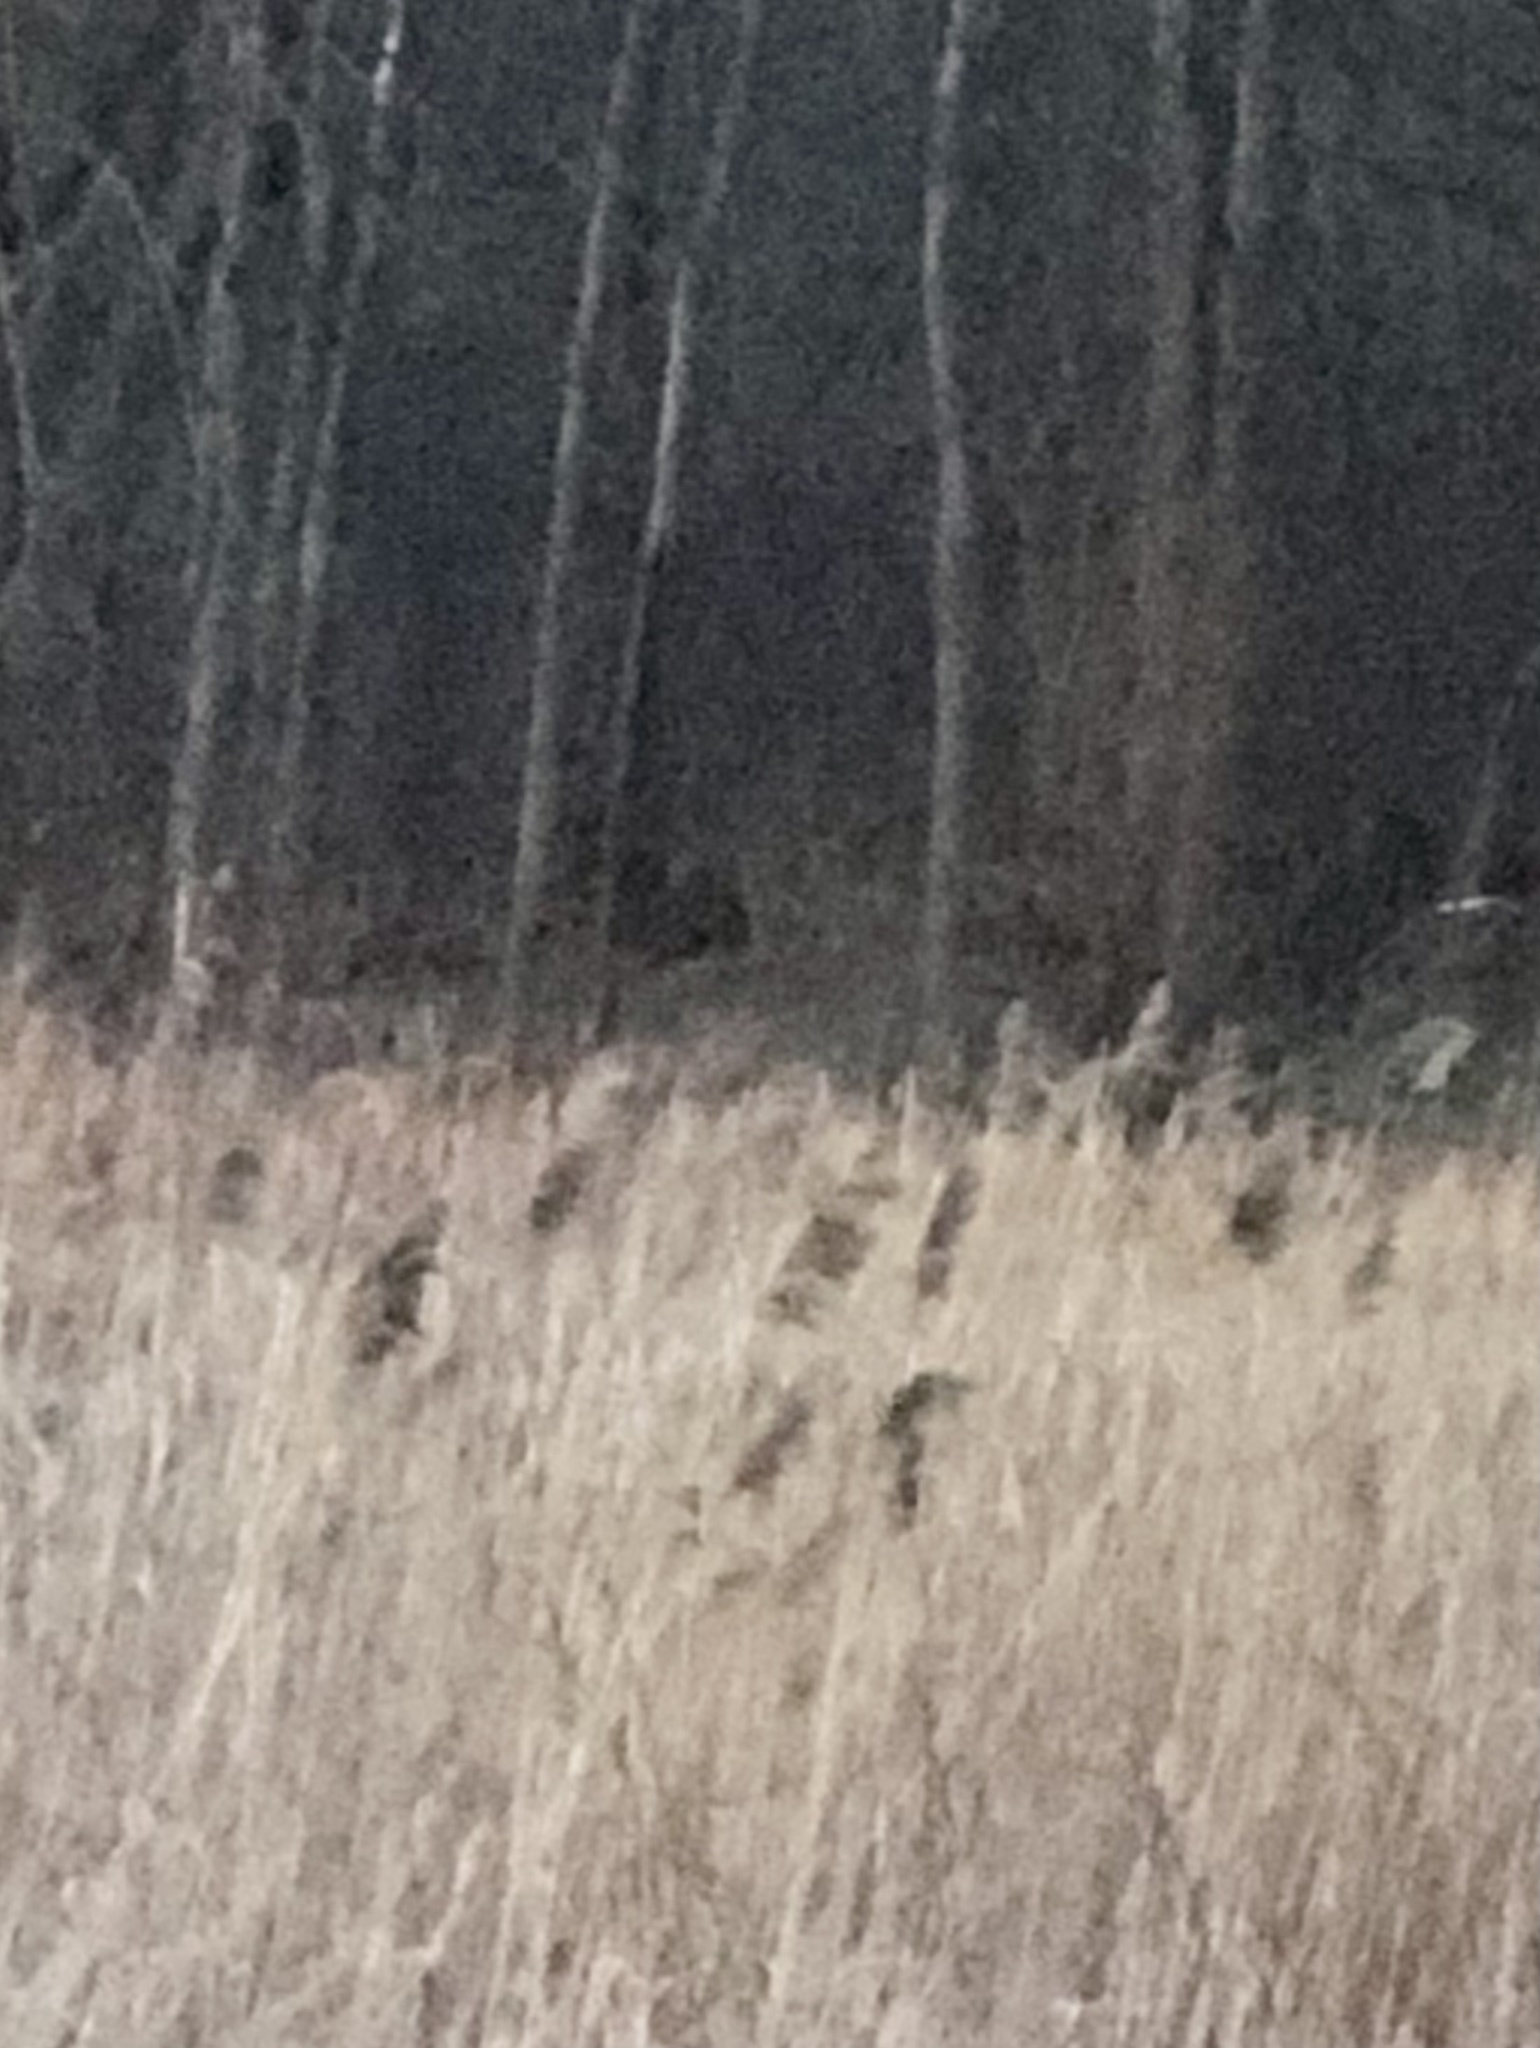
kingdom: Plantae
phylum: Tracheophyta
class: Liliopsida
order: Poales
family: Poaceae
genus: Phragmites
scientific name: Phragmites australis
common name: Common reed
